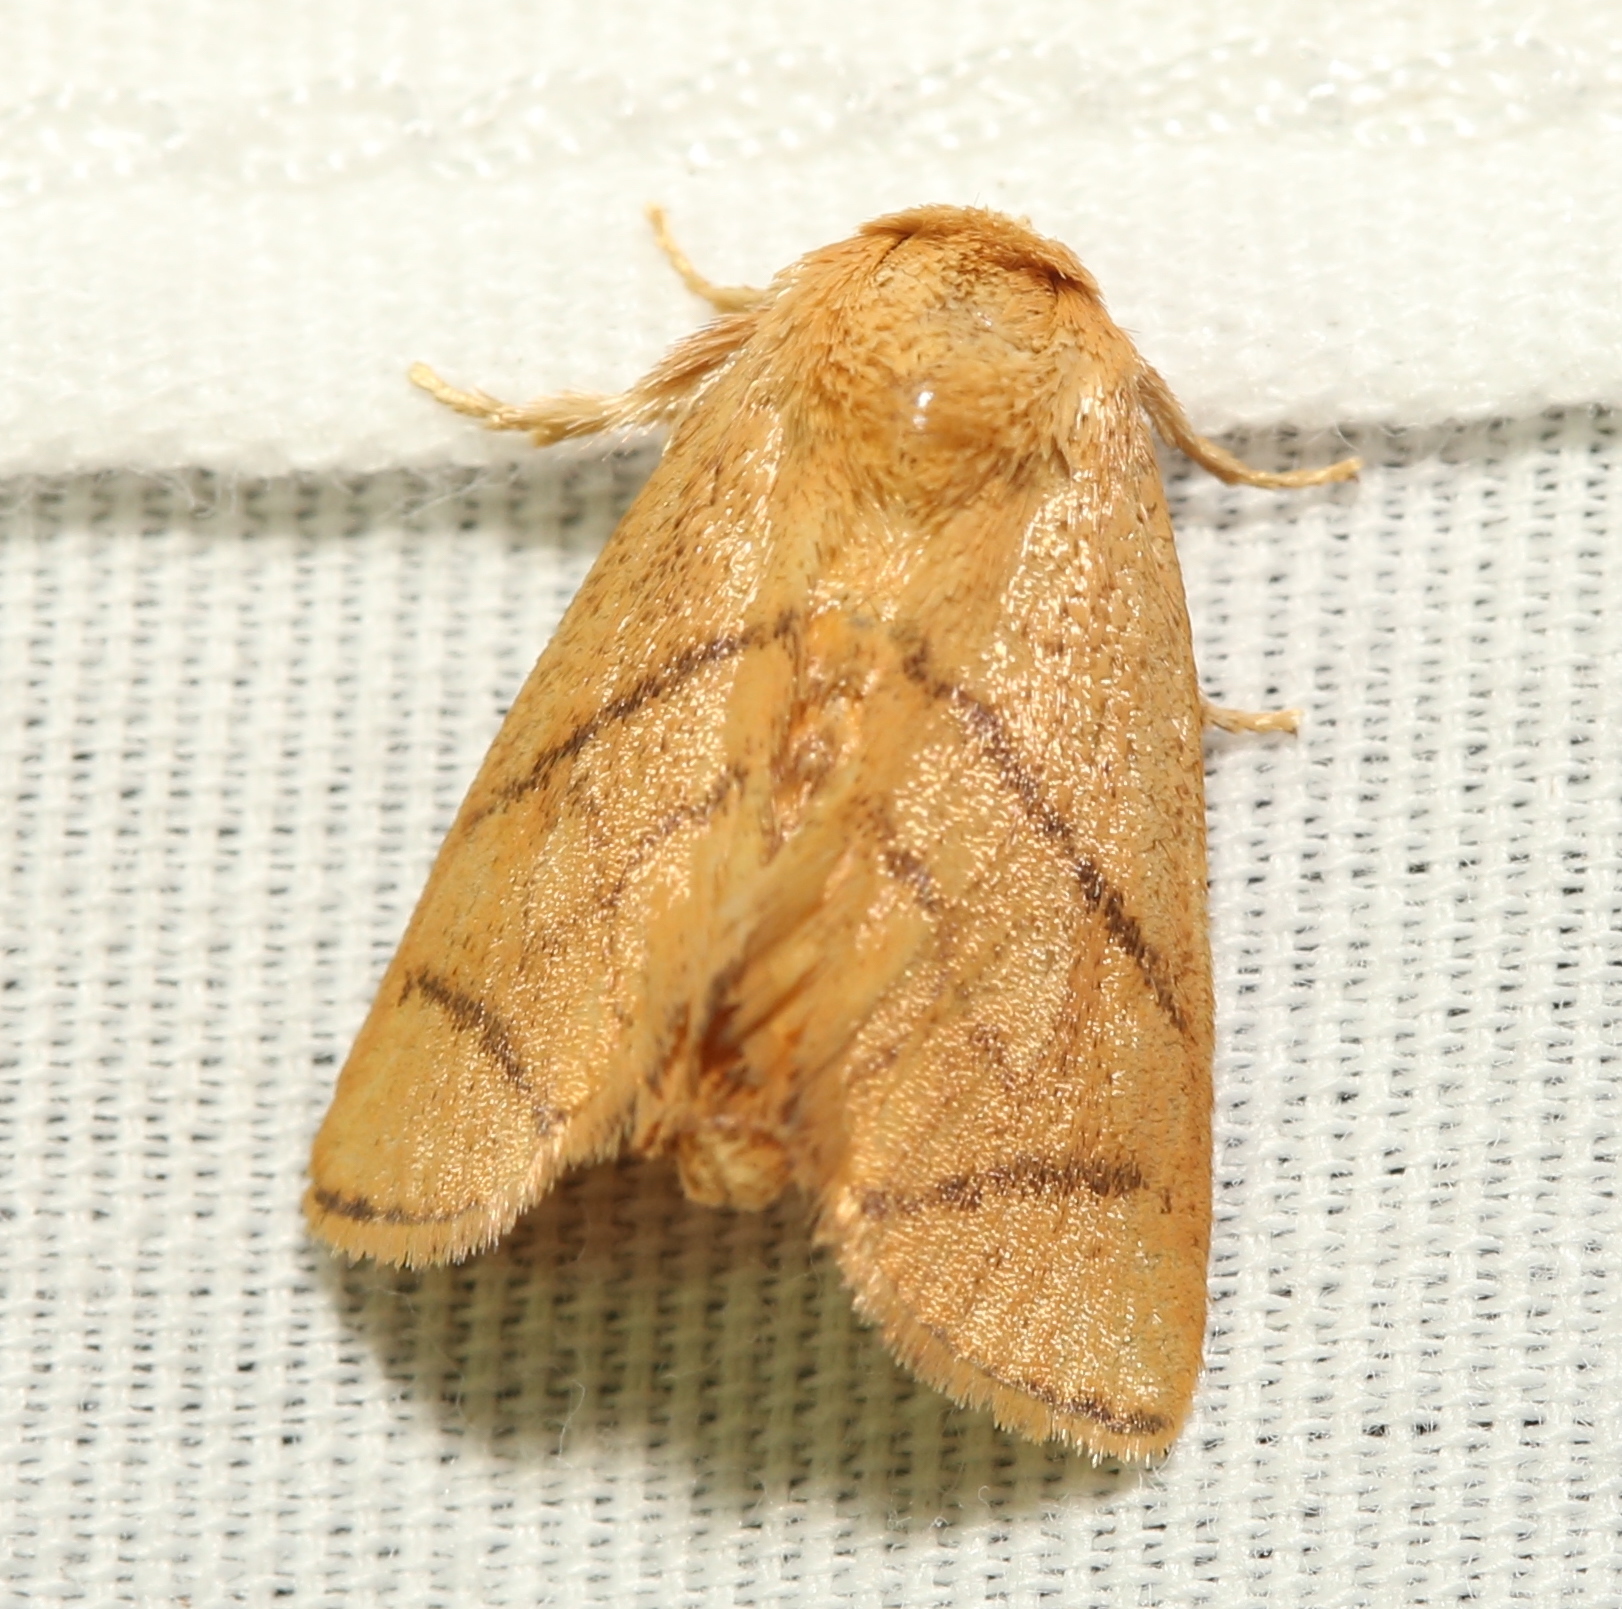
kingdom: Animalia
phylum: Arthropoda
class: Insecta
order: Lepidoptera
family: Limacodidae
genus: Apoda
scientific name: Apoda y-inversa
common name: Yellow-collared slug moth
